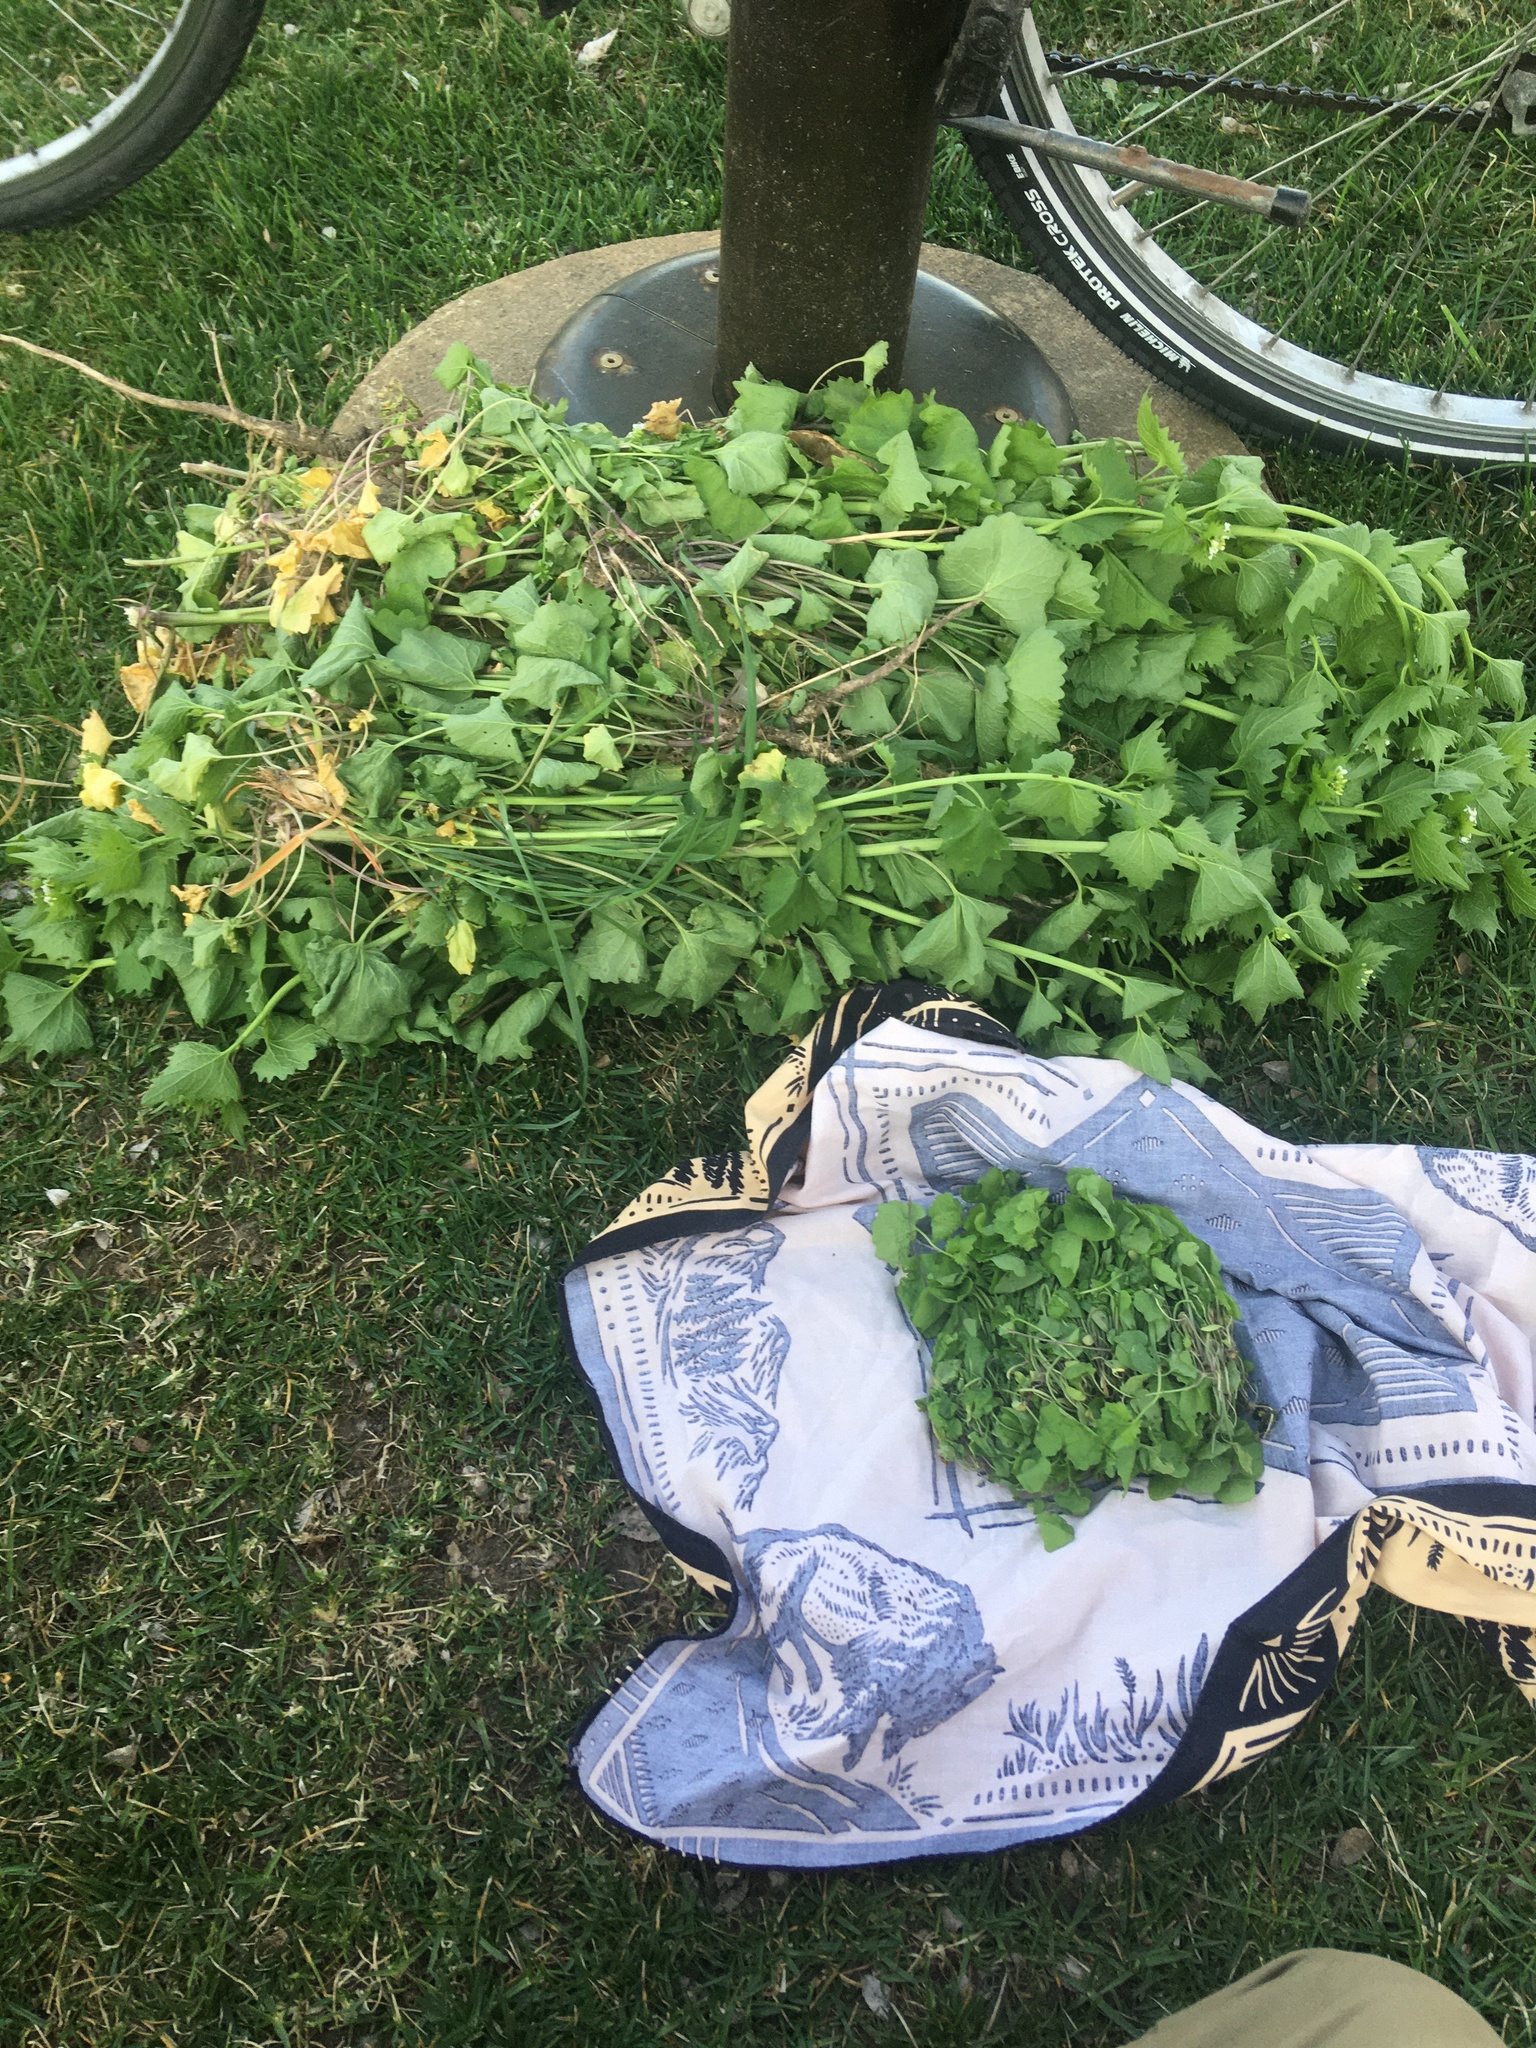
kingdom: Plantae
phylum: Tracheophyta
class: Magnoliopsida
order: Brassicales
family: Brassicaceae
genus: Alliaria
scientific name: Alliaria petiolata
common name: Garlic mustard
